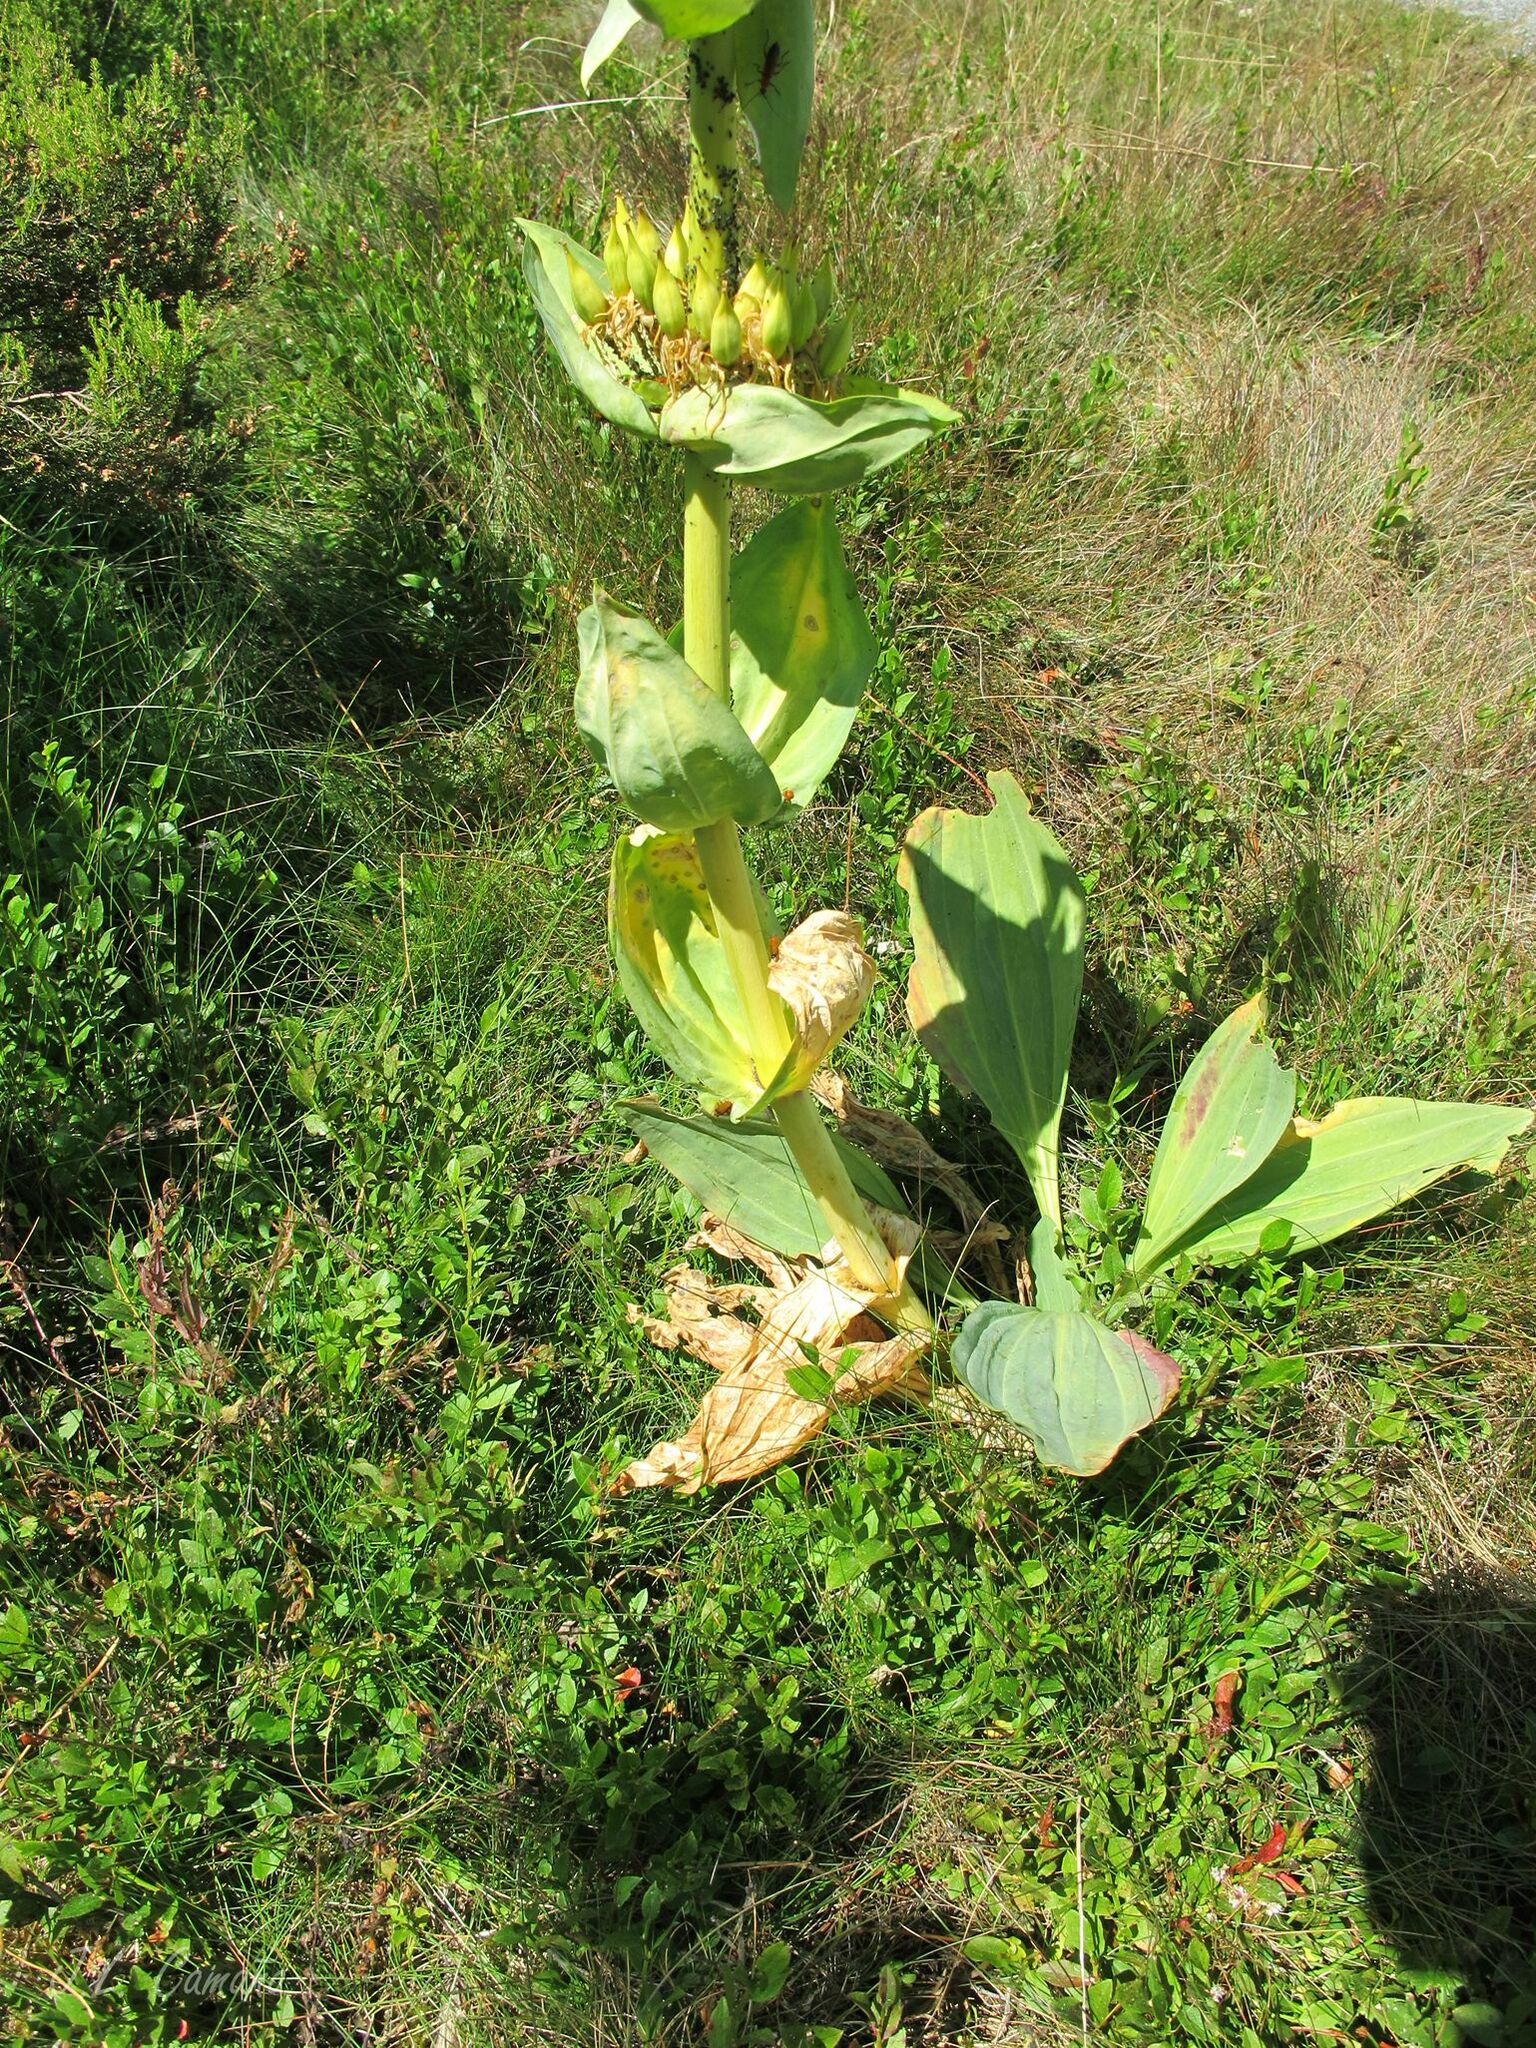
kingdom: Plantae
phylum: Tracheophyta
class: Magnoliopsida
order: Gentianales
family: Gentianaceae
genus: Gentiana
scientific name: Gentiana lutea
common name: Great yellow gentian
